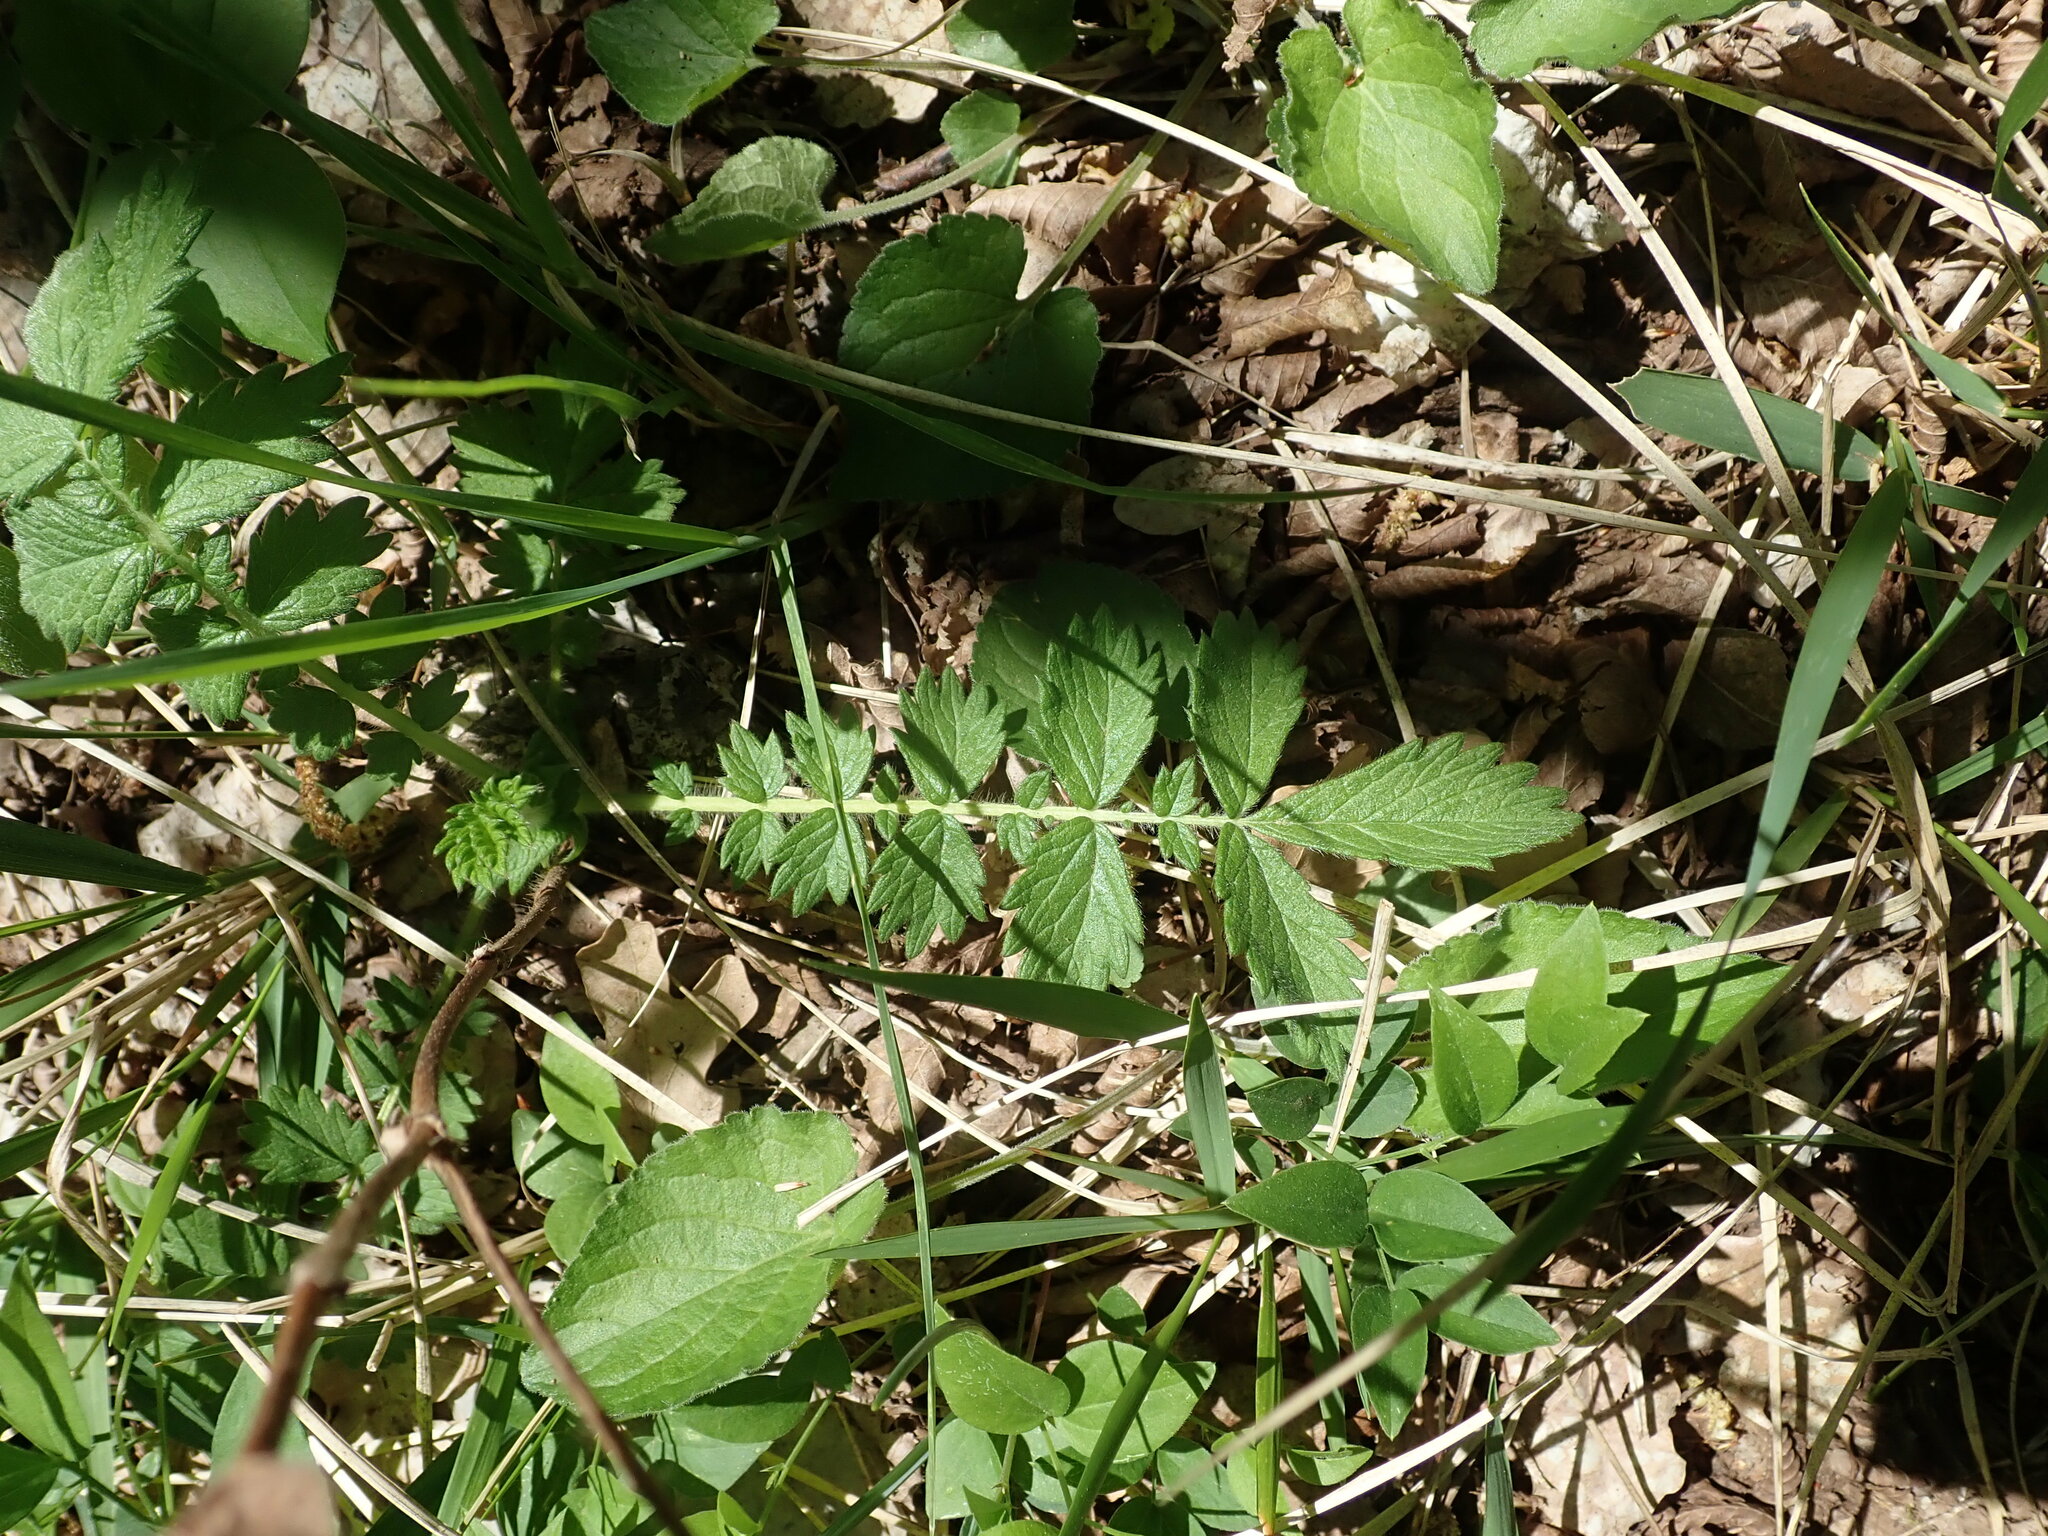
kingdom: Plantae
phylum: Tracheophyta
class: Magnoliopsida
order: Rosales
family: Rosaceae
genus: Agrimonia
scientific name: Agrimonia eupatoria
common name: Agrimony
